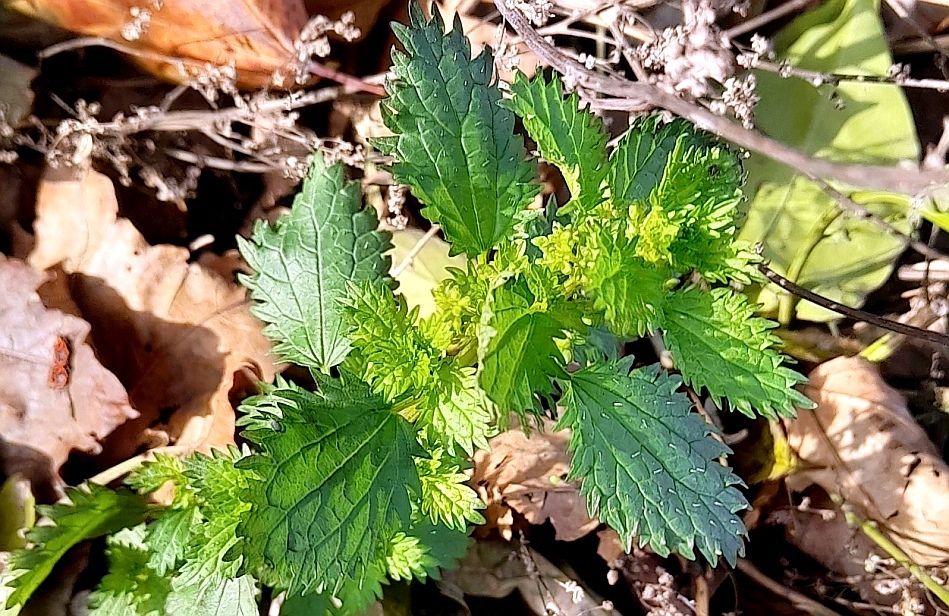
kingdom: Plantae
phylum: Tracheophyta
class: Magnoliopsida
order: Rosales
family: Urticaceae
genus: Urtica
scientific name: Urtica urens
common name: Dwarf nettle
